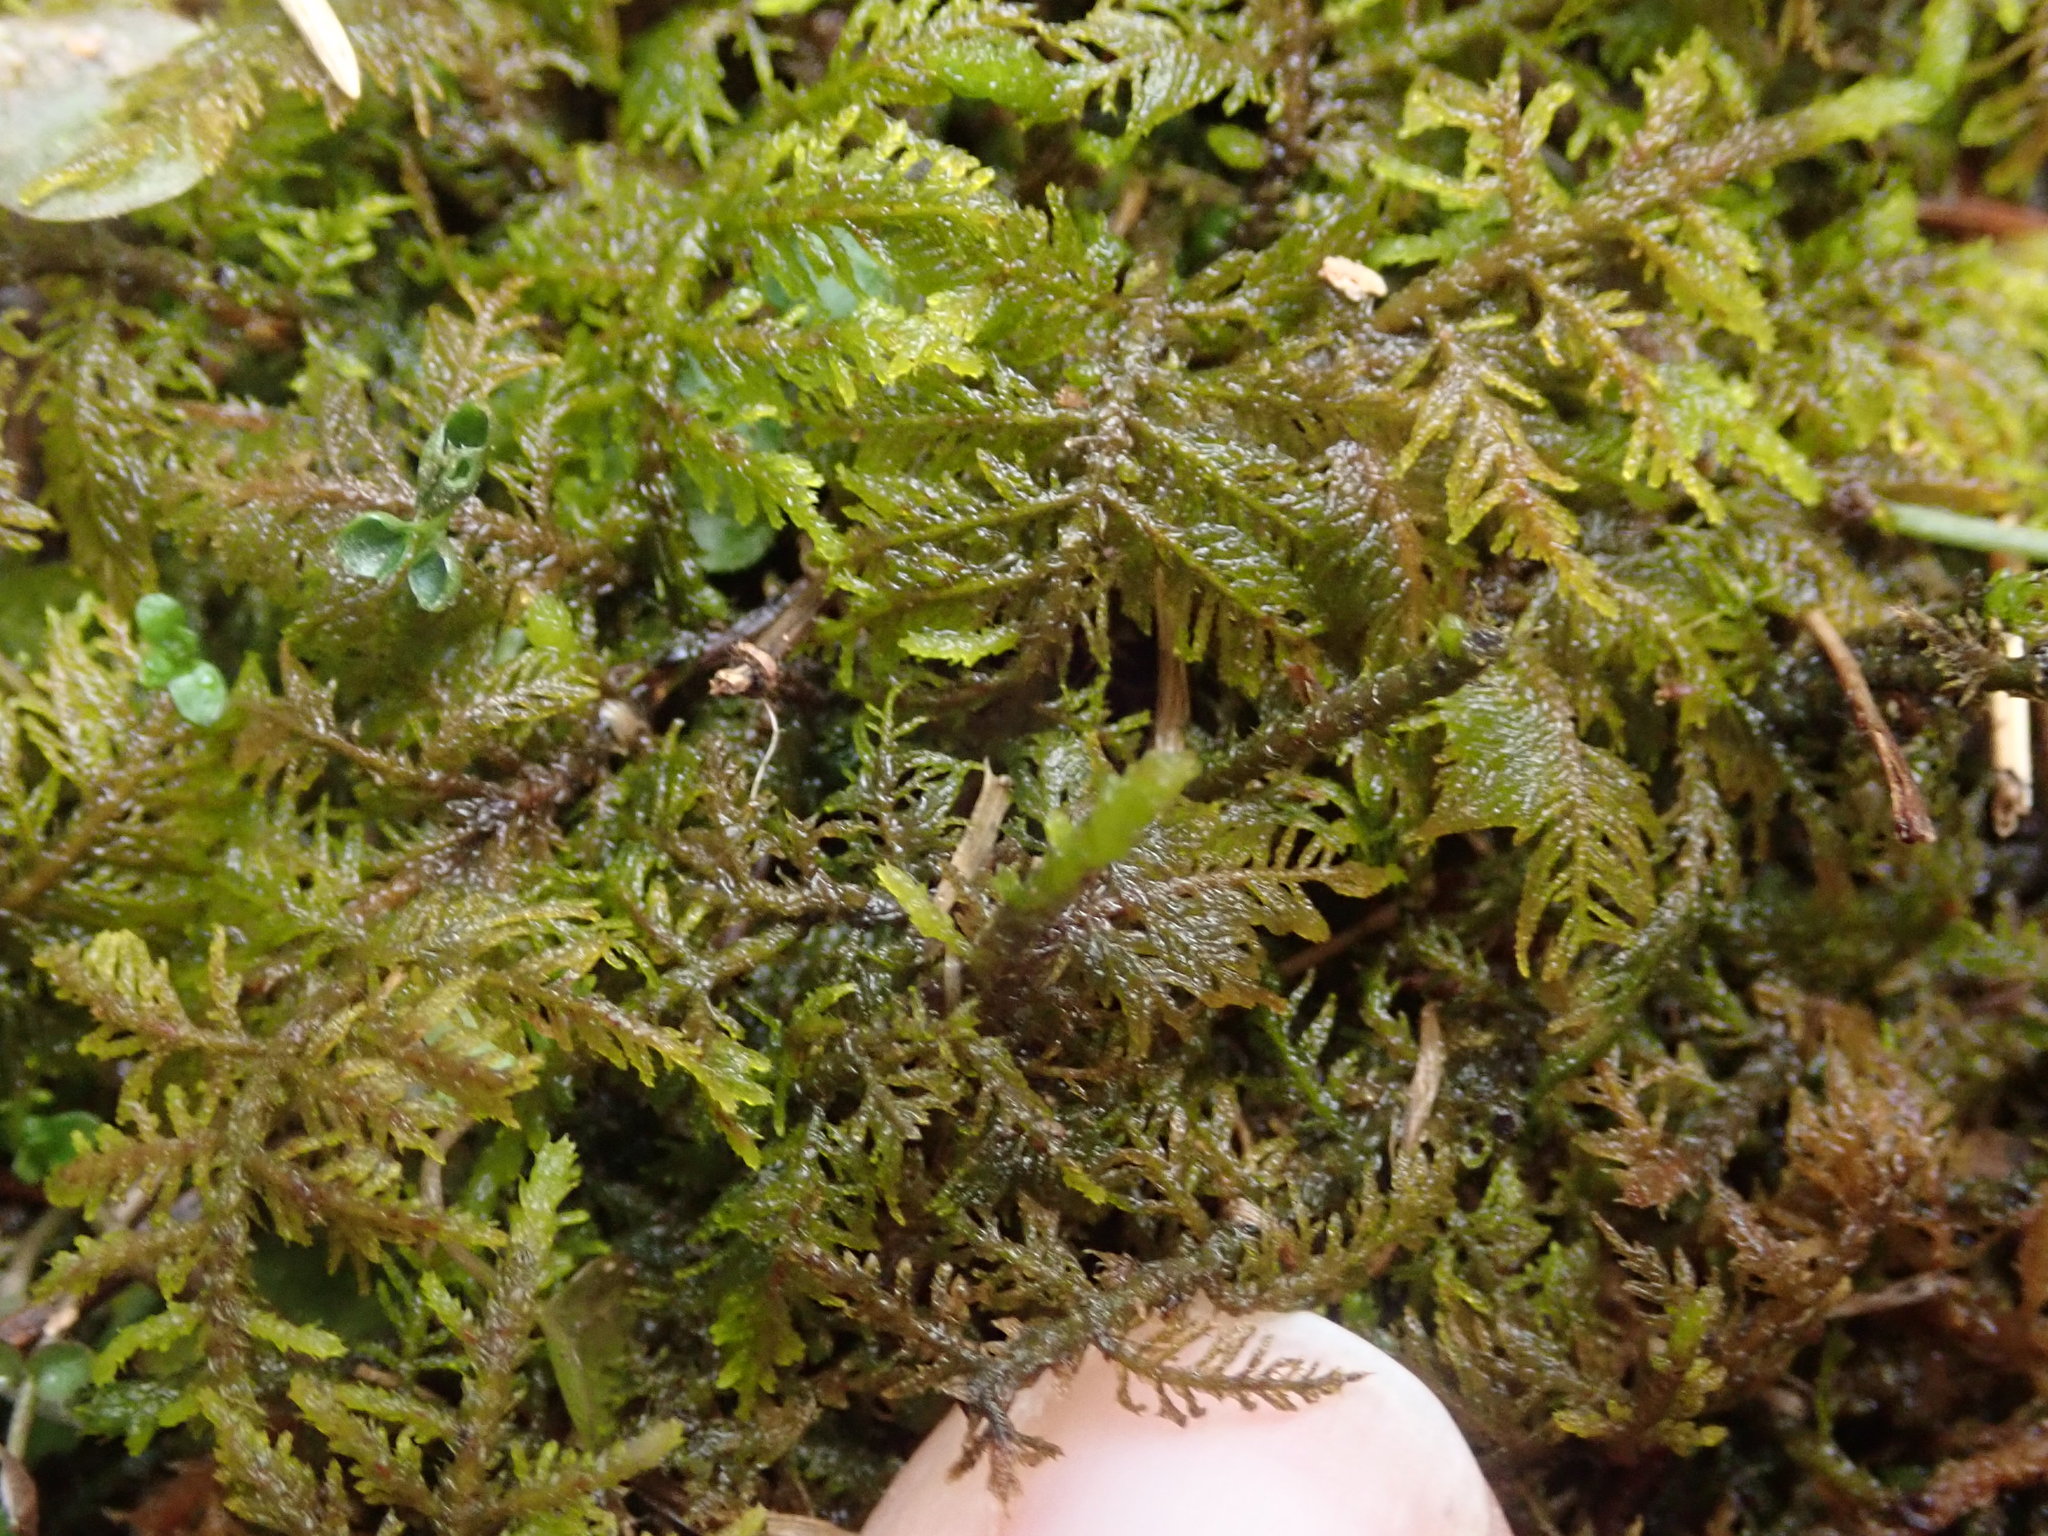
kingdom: Plantae
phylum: Bryophyta
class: Bryopsida
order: Hypnales
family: Thuidiaceae
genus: Thuidium
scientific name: Thuidium delicatulum
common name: Delicate fern moss
